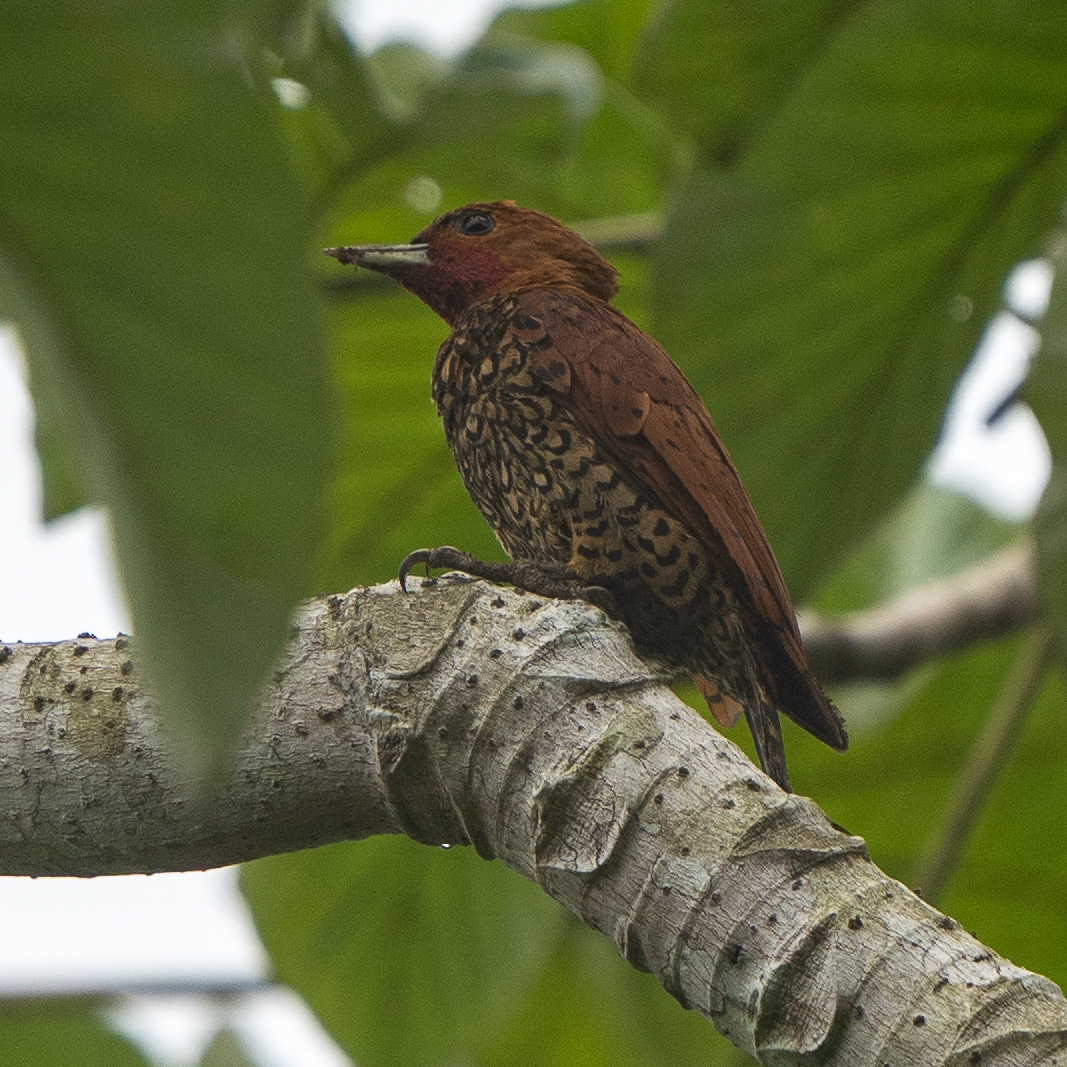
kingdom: Animalia
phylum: Chordata
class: Aves
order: Piciformes
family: Picidae
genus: Celeus
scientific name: Celeus loricatus
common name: Cinnamon woodpecker
